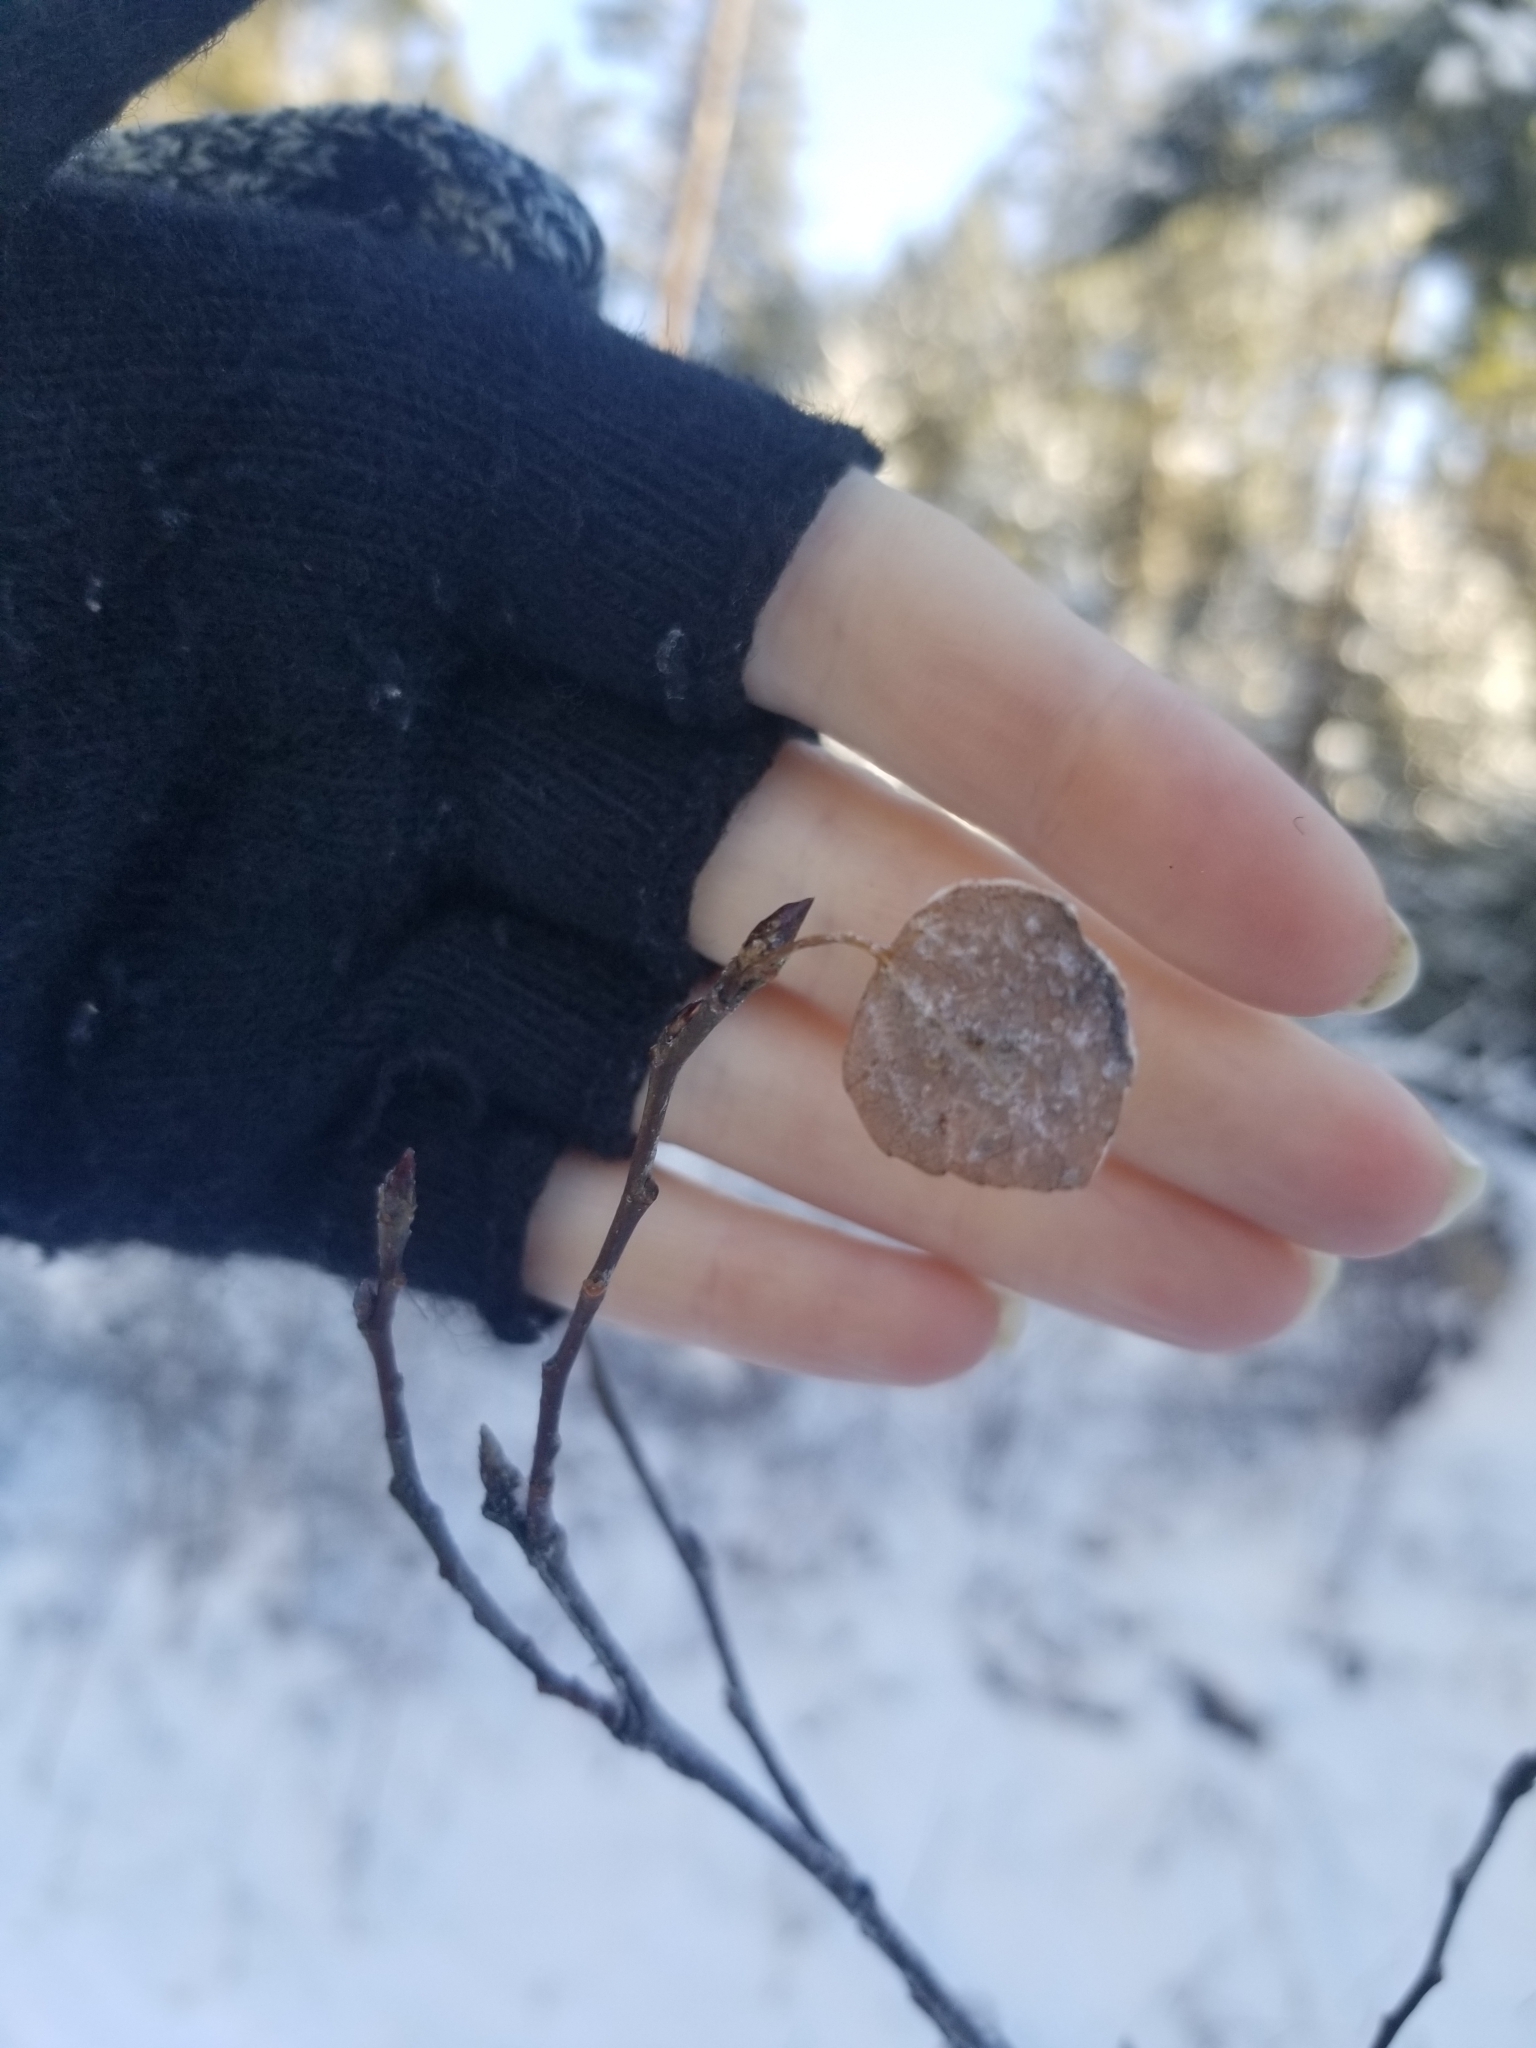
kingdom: Plantae
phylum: Tracheophyta
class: Magnoliopsida
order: Malpighiales
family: Salicaceae
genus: Populus
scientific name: Populus tremuloides
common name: Quaking aspen
